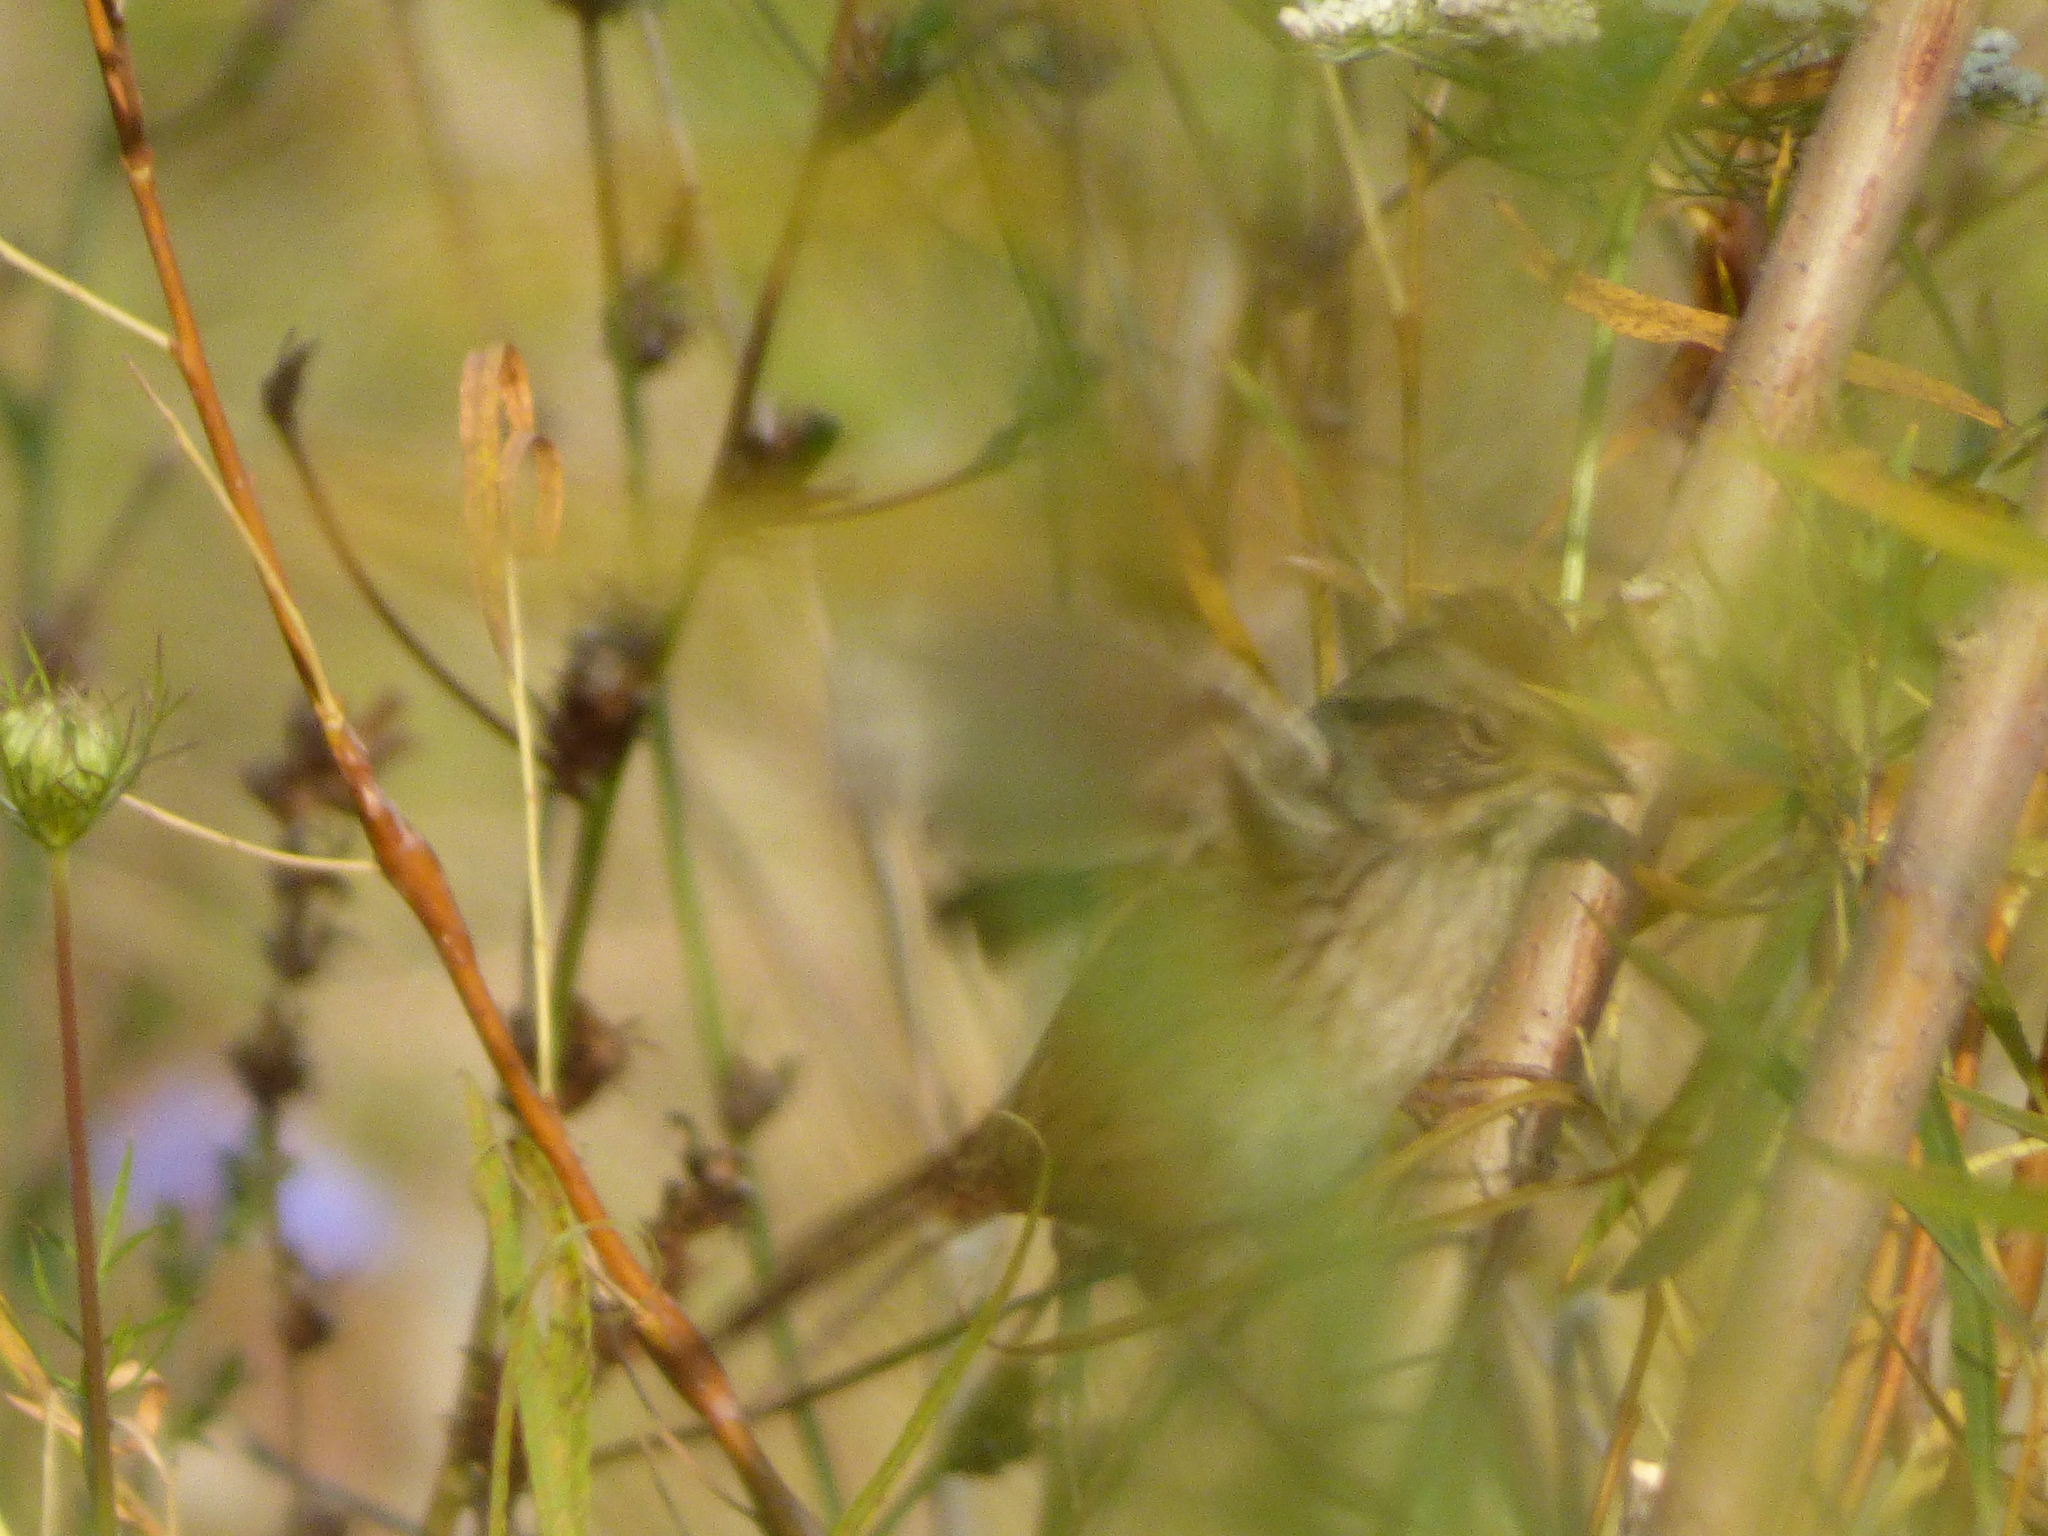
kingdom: Animalia
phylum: Chordata
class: Aves
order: Passeriformes
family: Passerellidae
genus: Melospiza
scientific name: Melospiza georgiana
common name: Swamp sparrow
